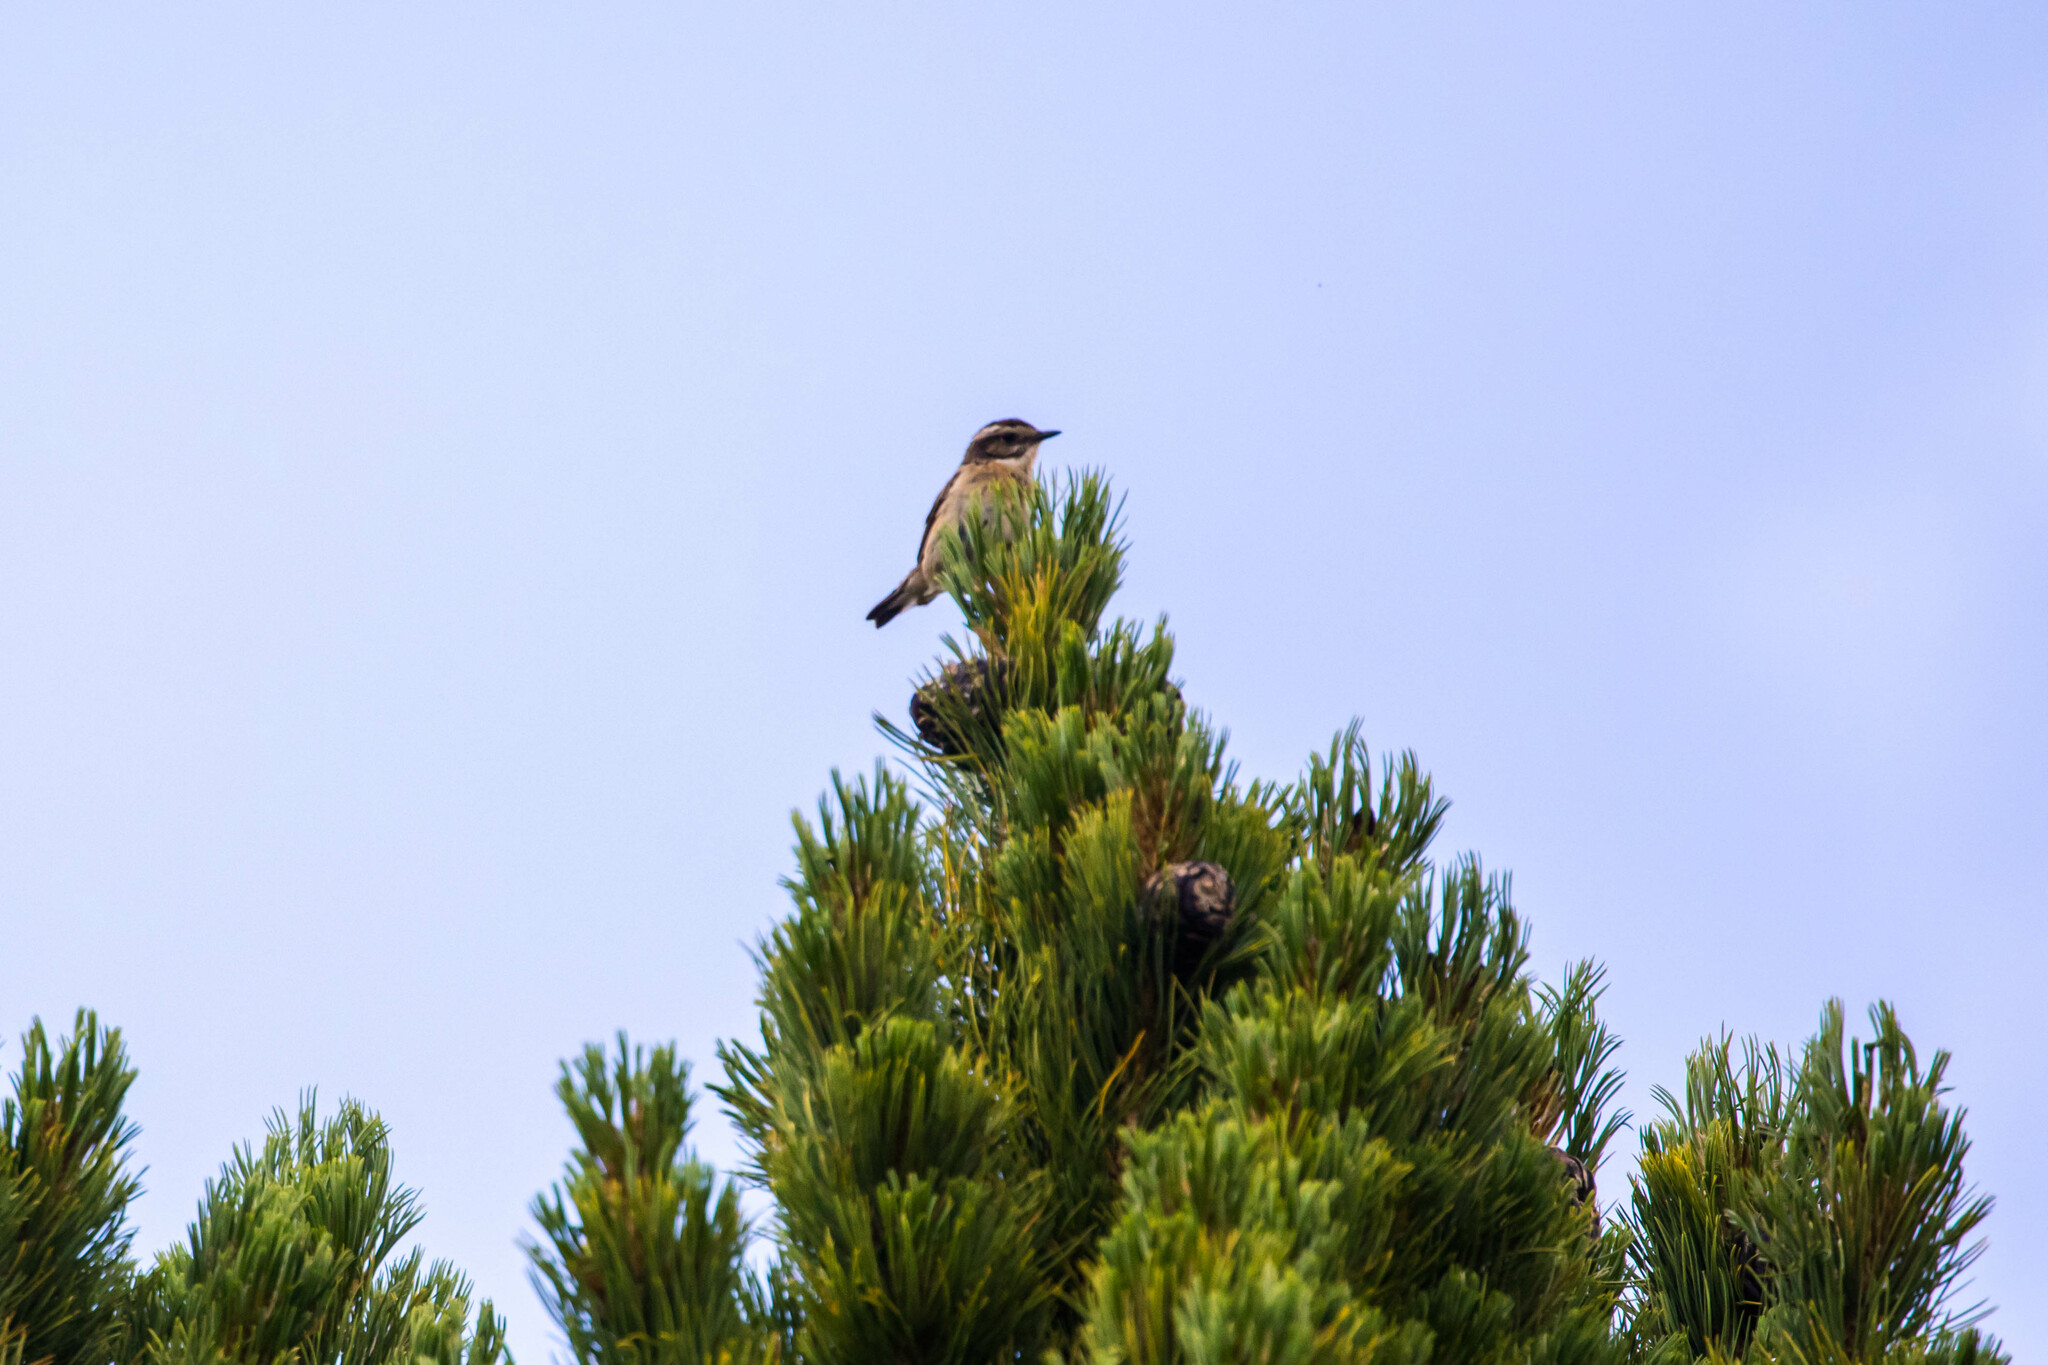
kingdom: Animalia
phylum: Chordata
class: Aves
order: Passeriformes
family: Muscicapidae
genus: Saxicola
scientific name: Saxicola rubetra
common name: Whinchat
